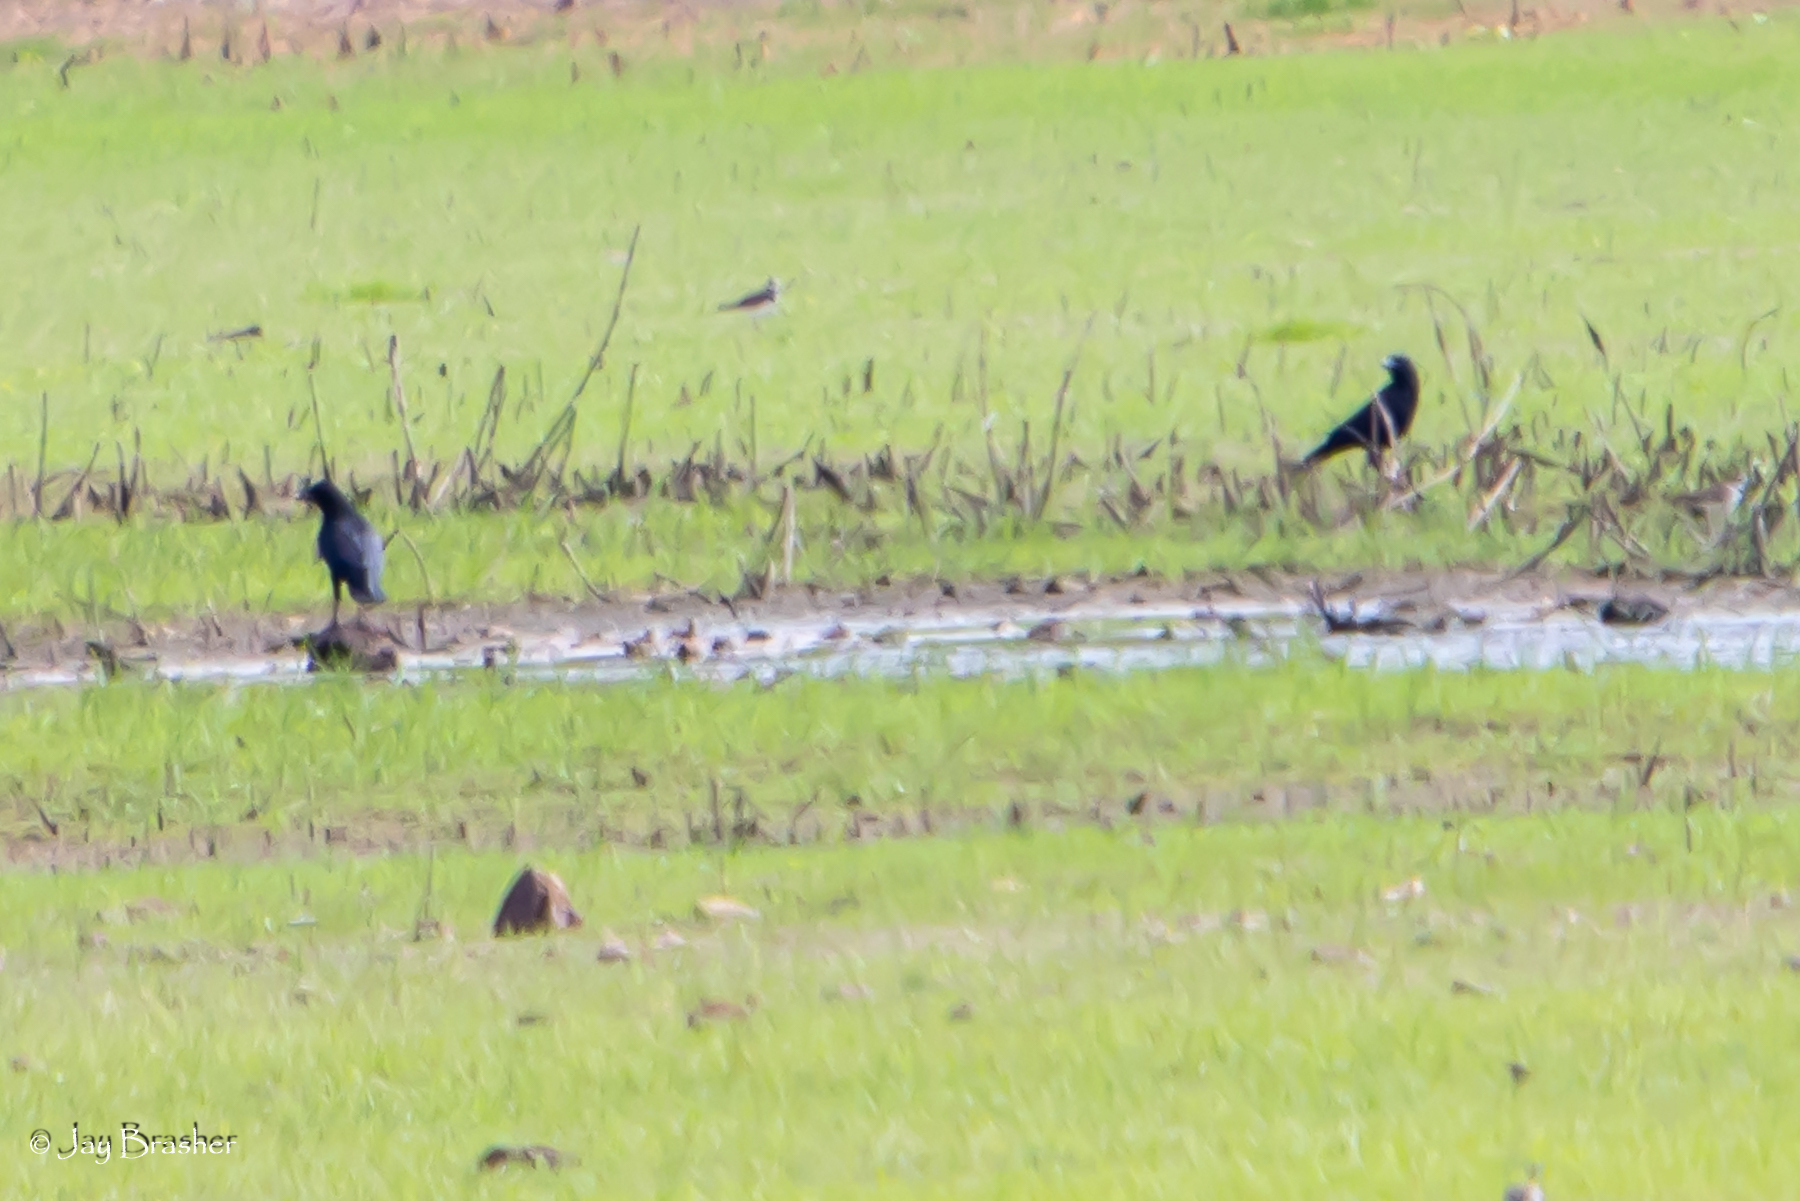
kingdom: Animalia
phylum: Chordata
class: Aves
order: Passeriformes
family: Corvidae
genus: Corvus
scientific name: Corvus brachyrhynchos
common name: American crow
